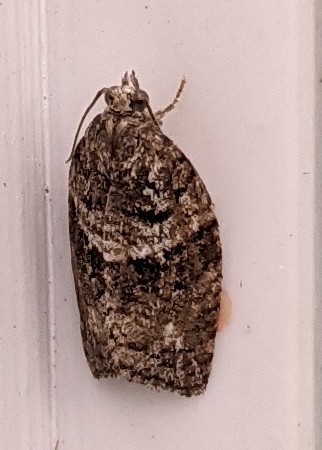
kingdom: Animalia
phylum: Arthropoda
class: Insecta
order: Lepidoptera
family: Tortricidae
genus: Syndemis
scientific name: Syndemis afflictana
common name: Gray leafroller moth
